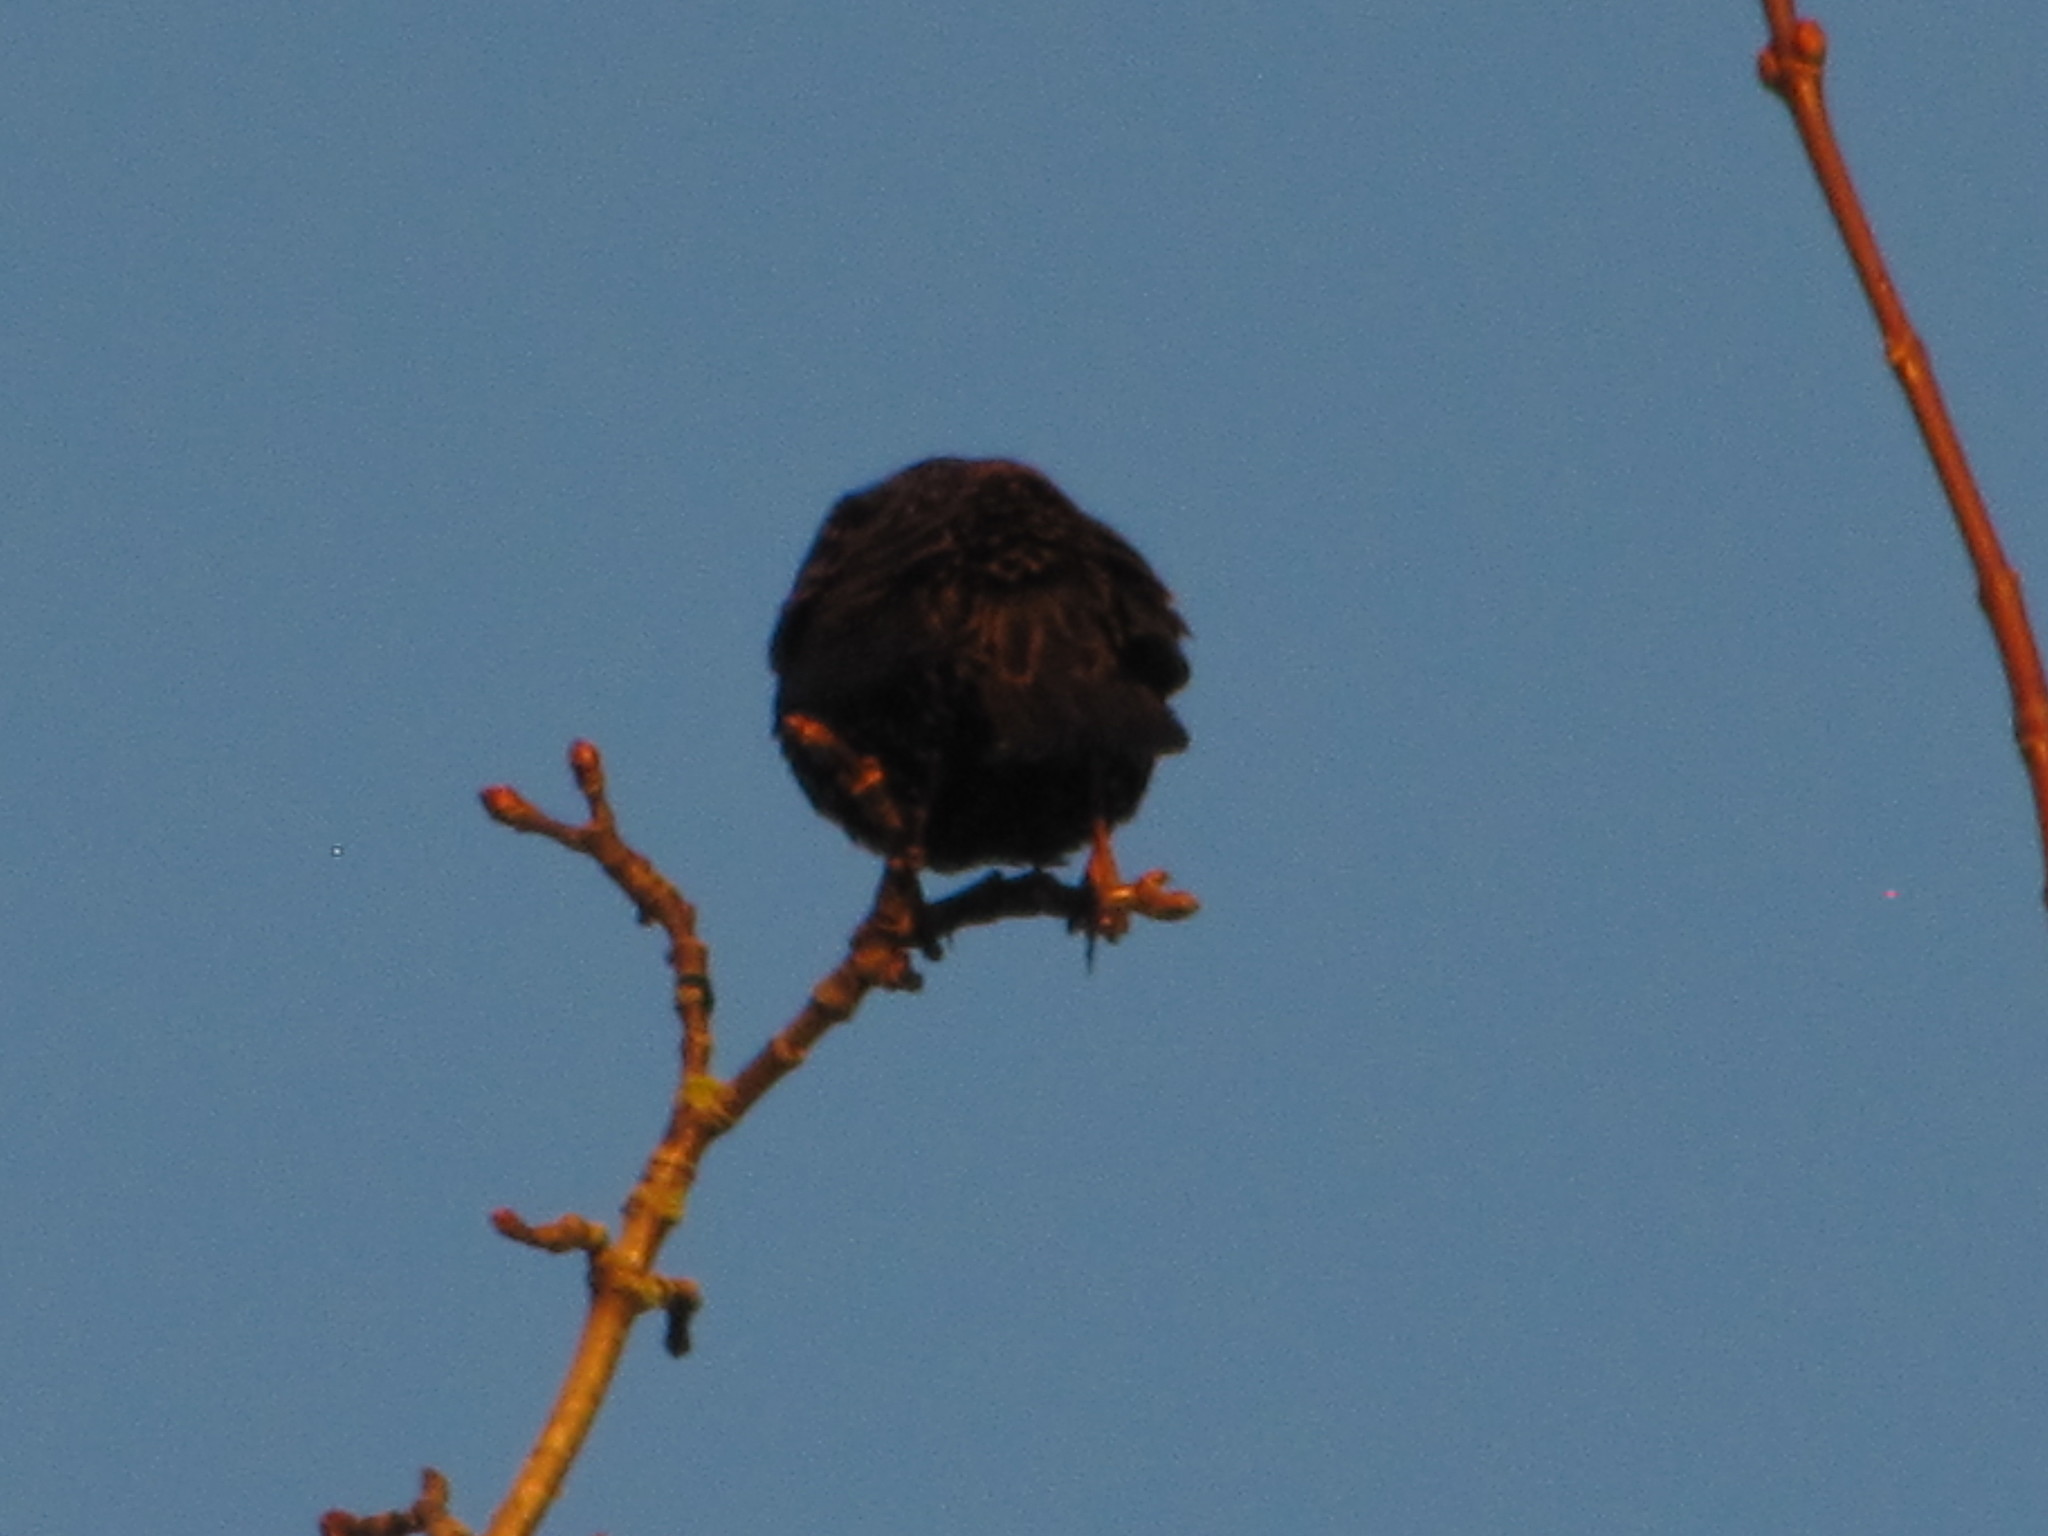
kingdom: Animalia
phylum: Chordata
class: Aves
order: Passeriformes
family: Sturnidae
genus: Sturnus
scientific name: Sturnus vulgaris
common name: Common starling
